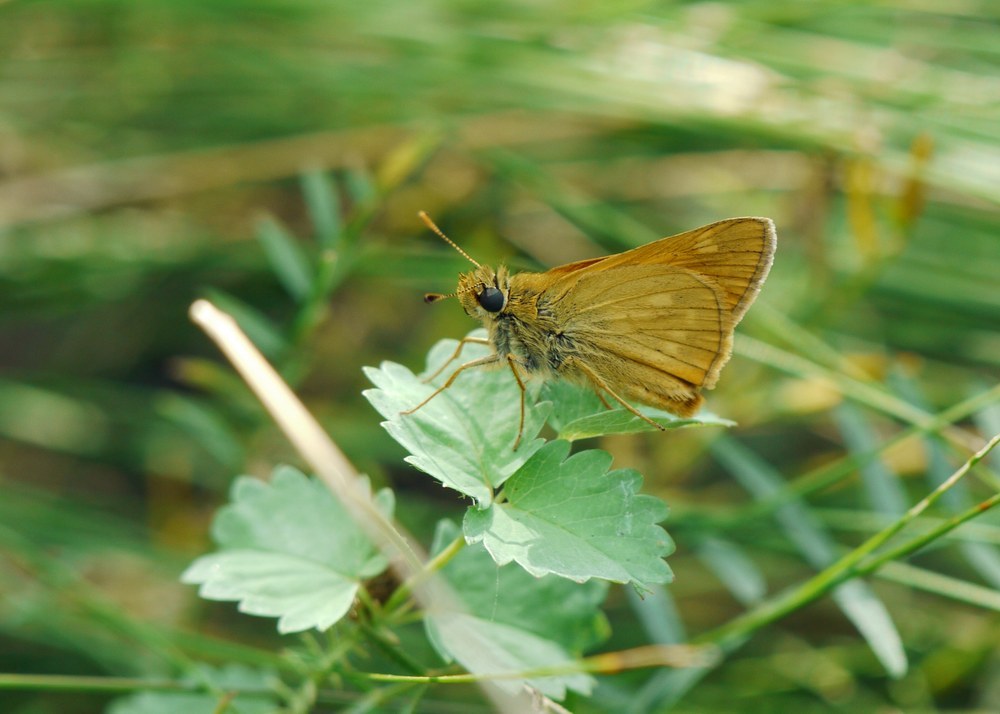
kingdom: Animalia
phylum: Arthropoda
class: Insecta
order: Lepidoptera
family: Hesperiidae
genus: Ochlodes
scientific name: Ochlodes venata
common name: Large skipper
